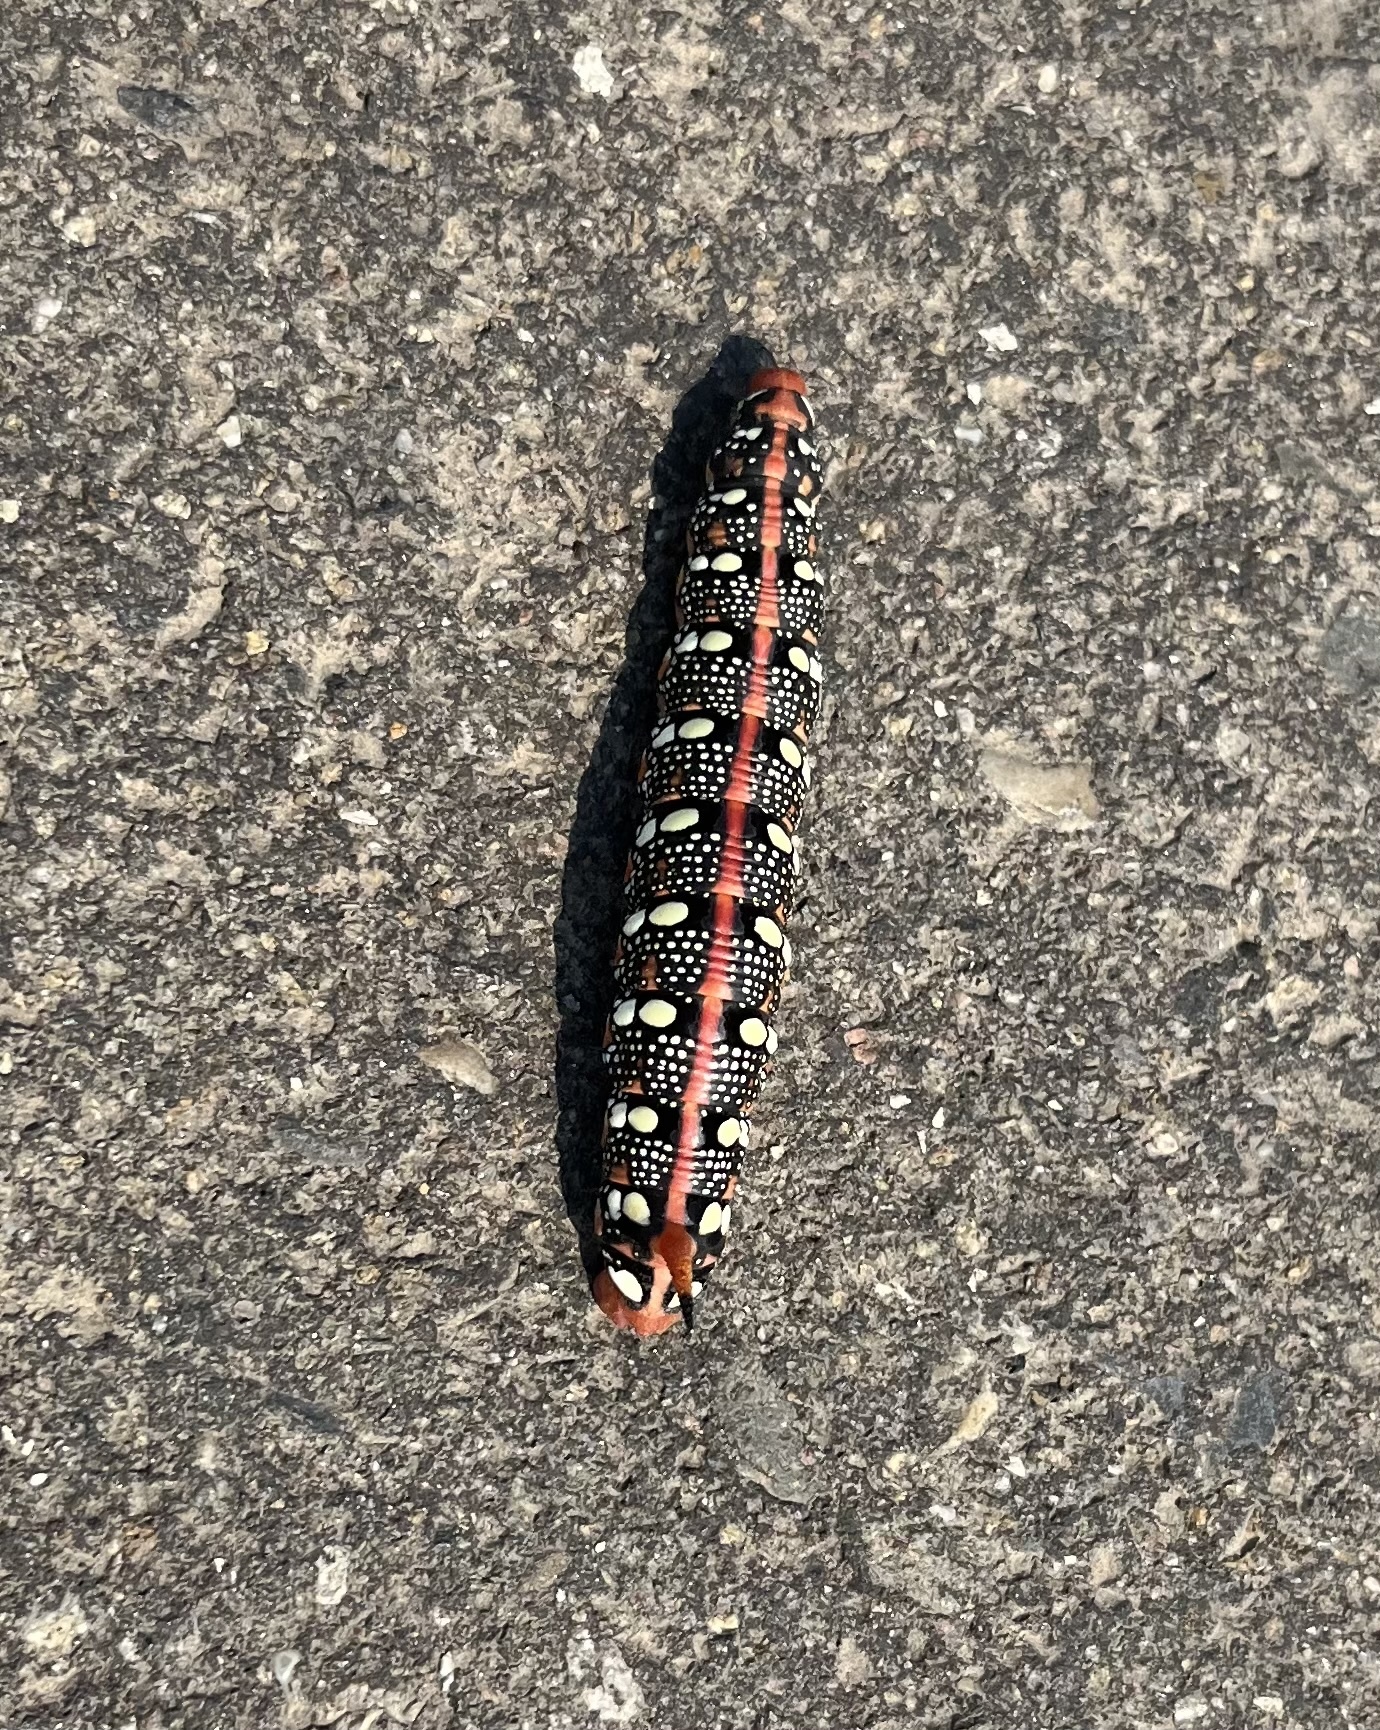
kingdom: Animalia
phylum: Arthropoda
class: Insecta
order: Lepidoptera
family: Sphingidae
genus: Hyles
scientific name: Hyles euphorbiae
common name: Spurge hawk-moth
